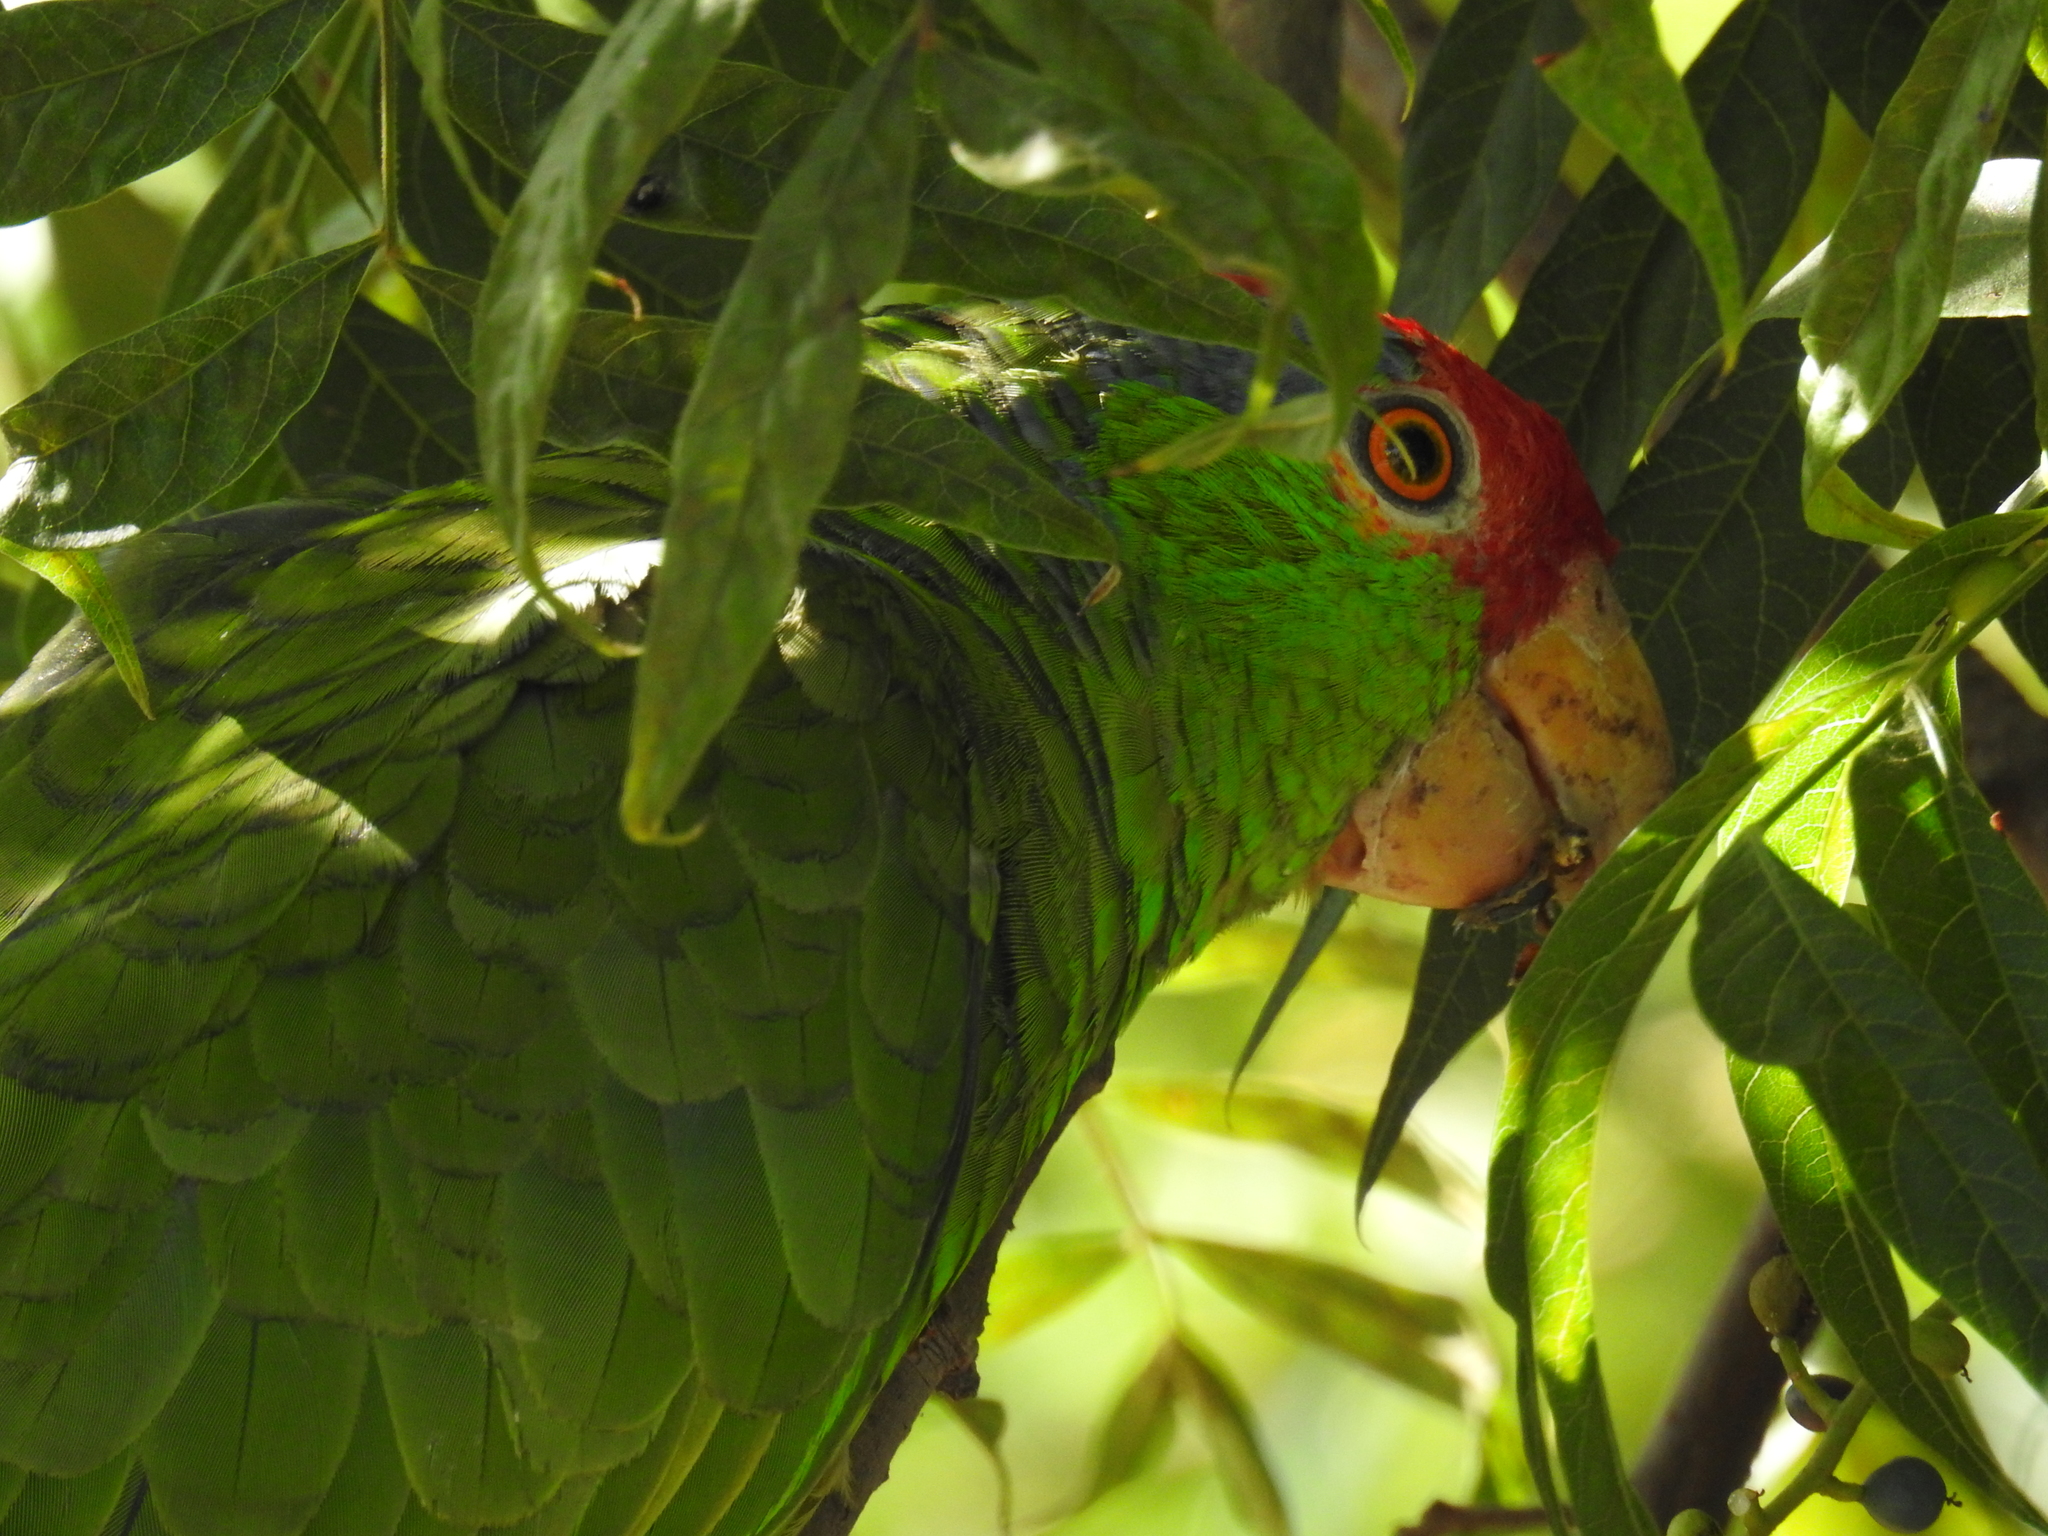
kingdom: Animalia
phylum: Chordata
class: Aves
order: Psittaciformes
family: Psittacidae
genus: Amazona
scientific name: Amazona viridigenalis
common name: Red-crowned amazon
